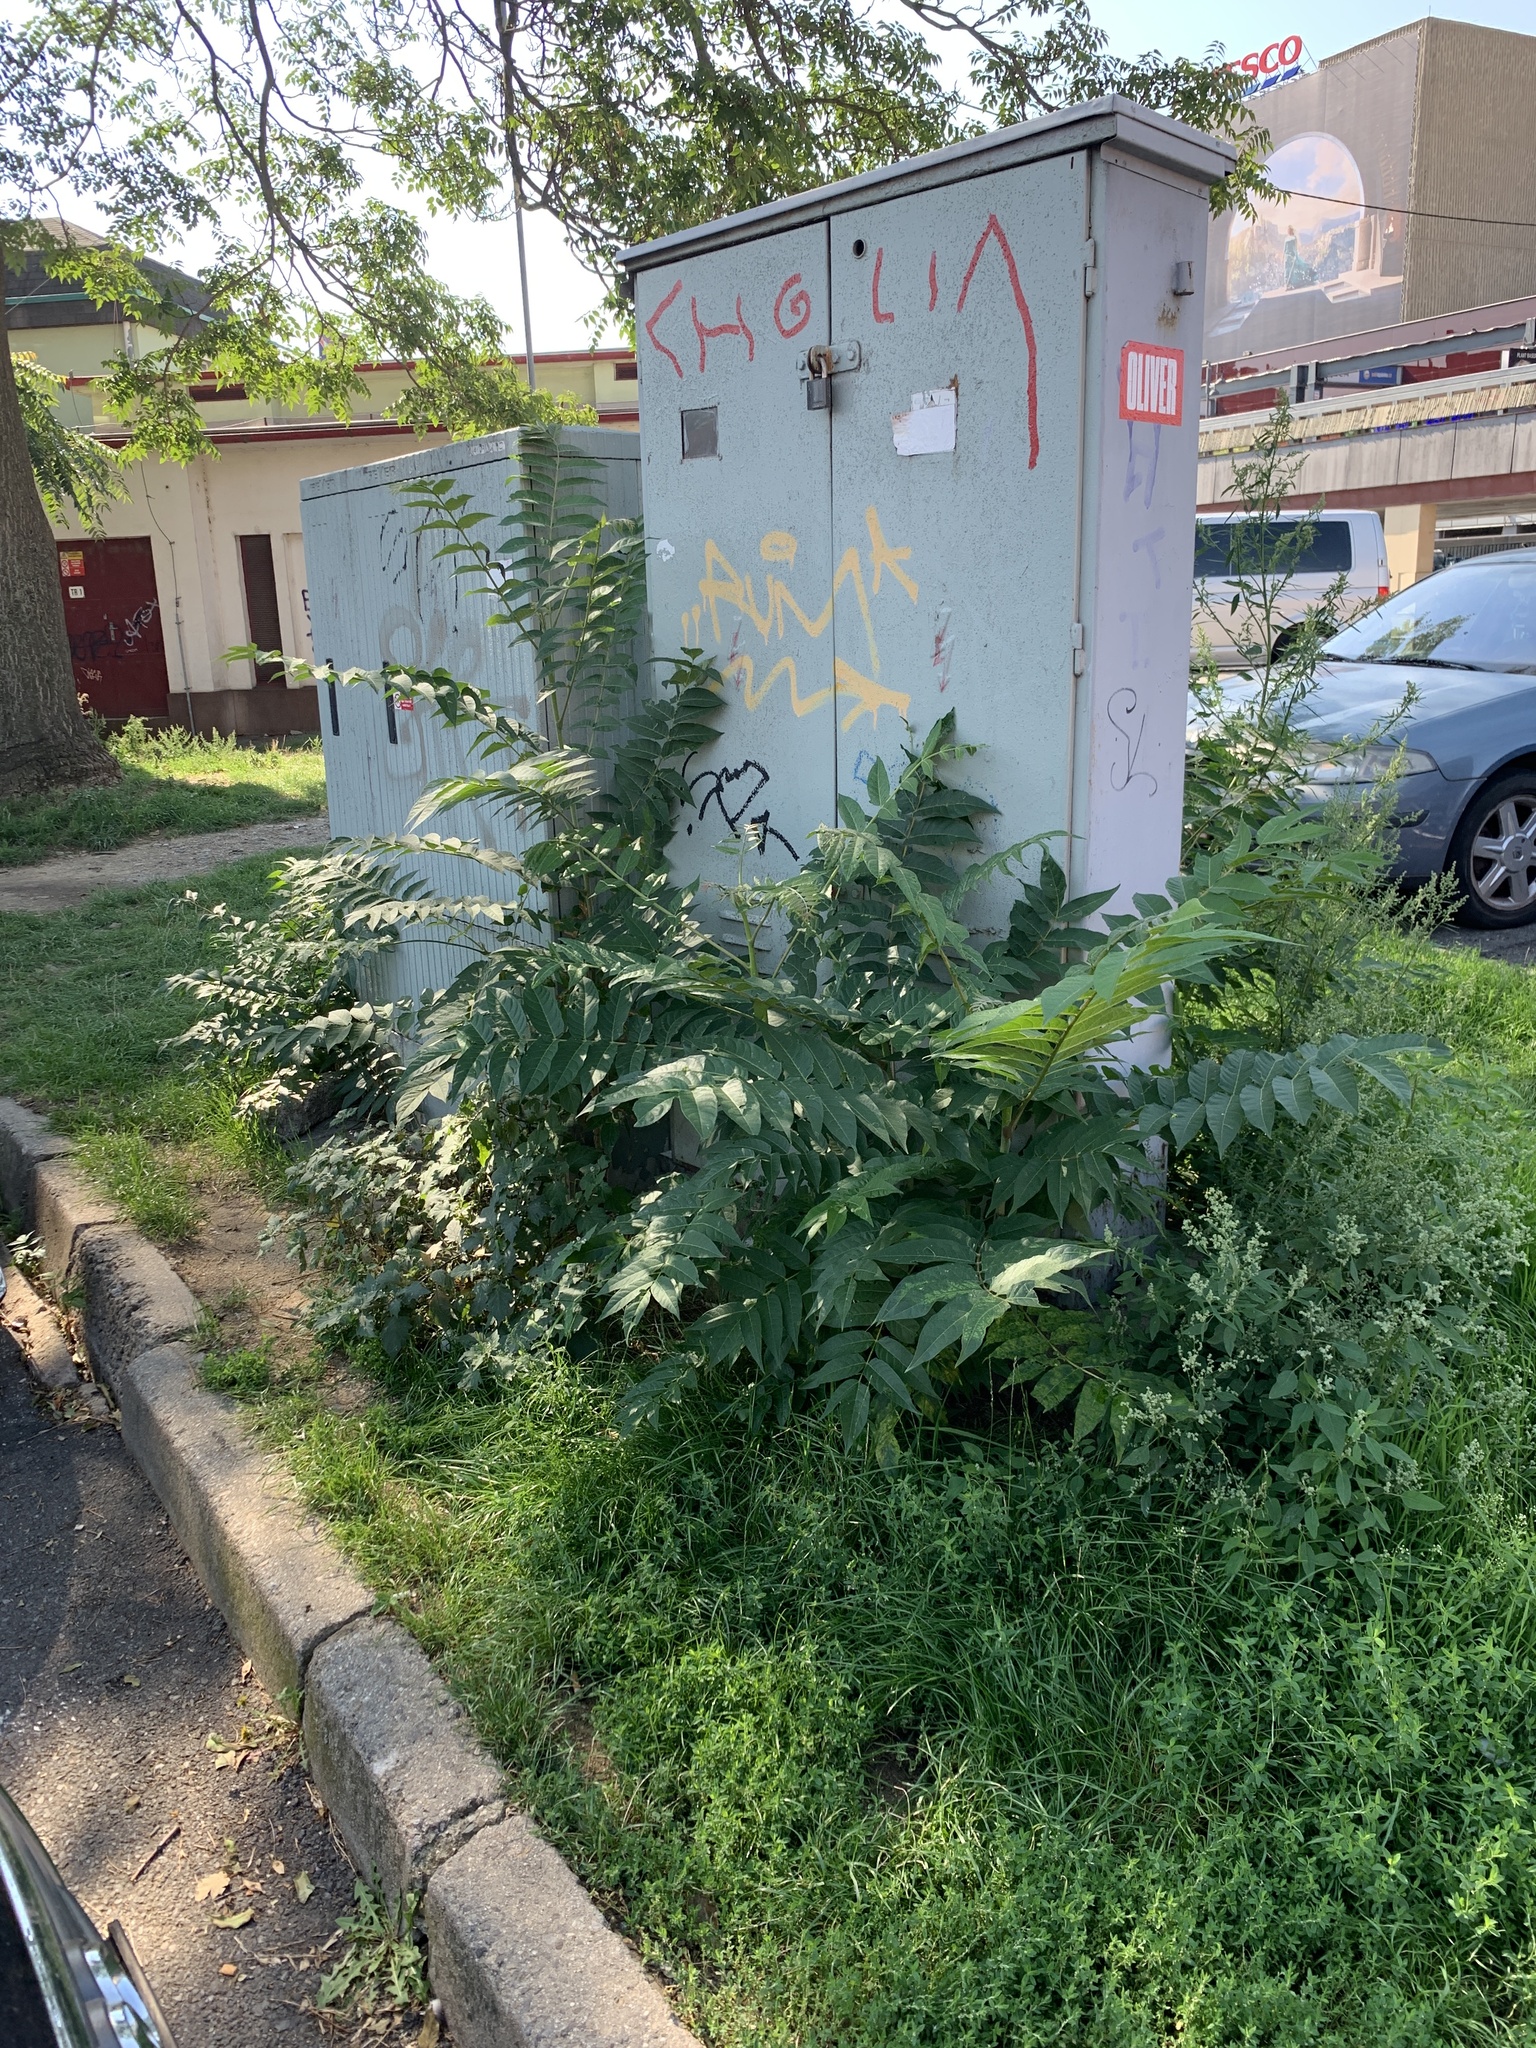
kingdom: Plantae
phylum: Tracheophyta
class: Magnoliopsida
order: Sapindales
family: Simaroubaceae
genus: Ailanthus
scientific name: Ailanthus altissima
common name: Tree-of-heaven
